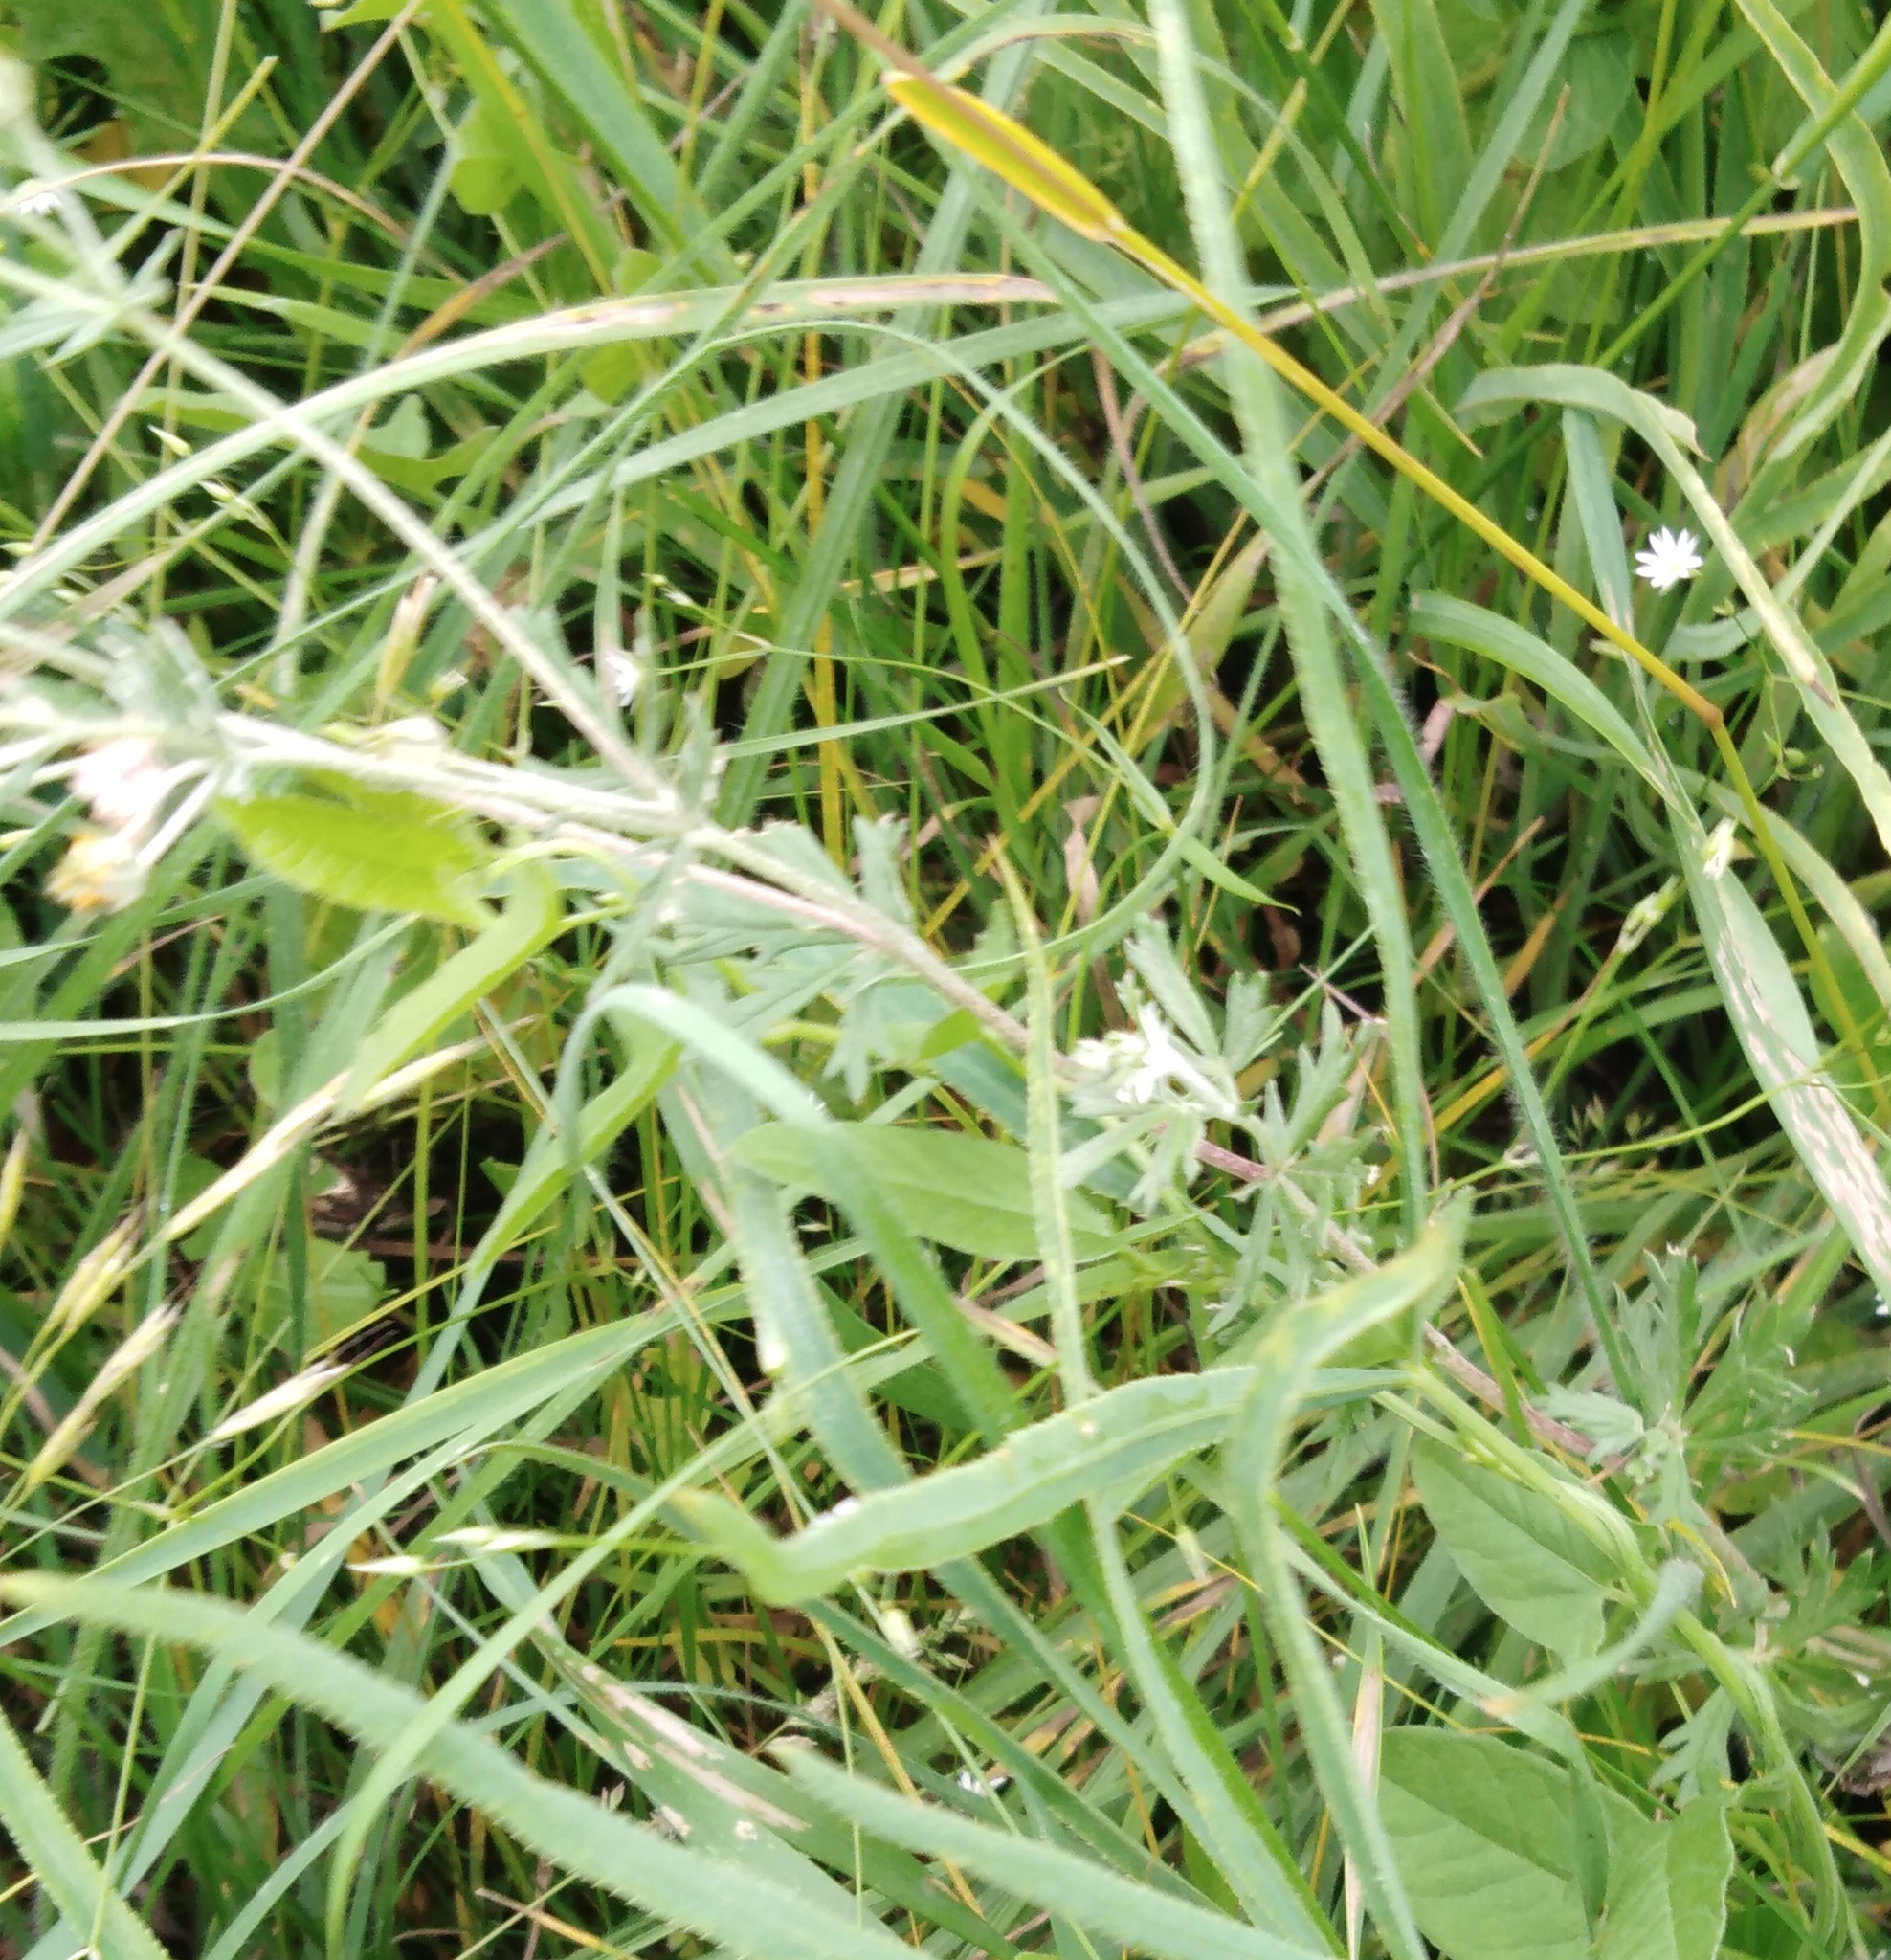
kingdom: Plantae
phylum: Tracheophyta
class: Magnoliopsida
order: Rosales
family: Rosaceae
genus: Potentilla
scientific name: Potentilla argentea
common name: Hoary cinquefoil
